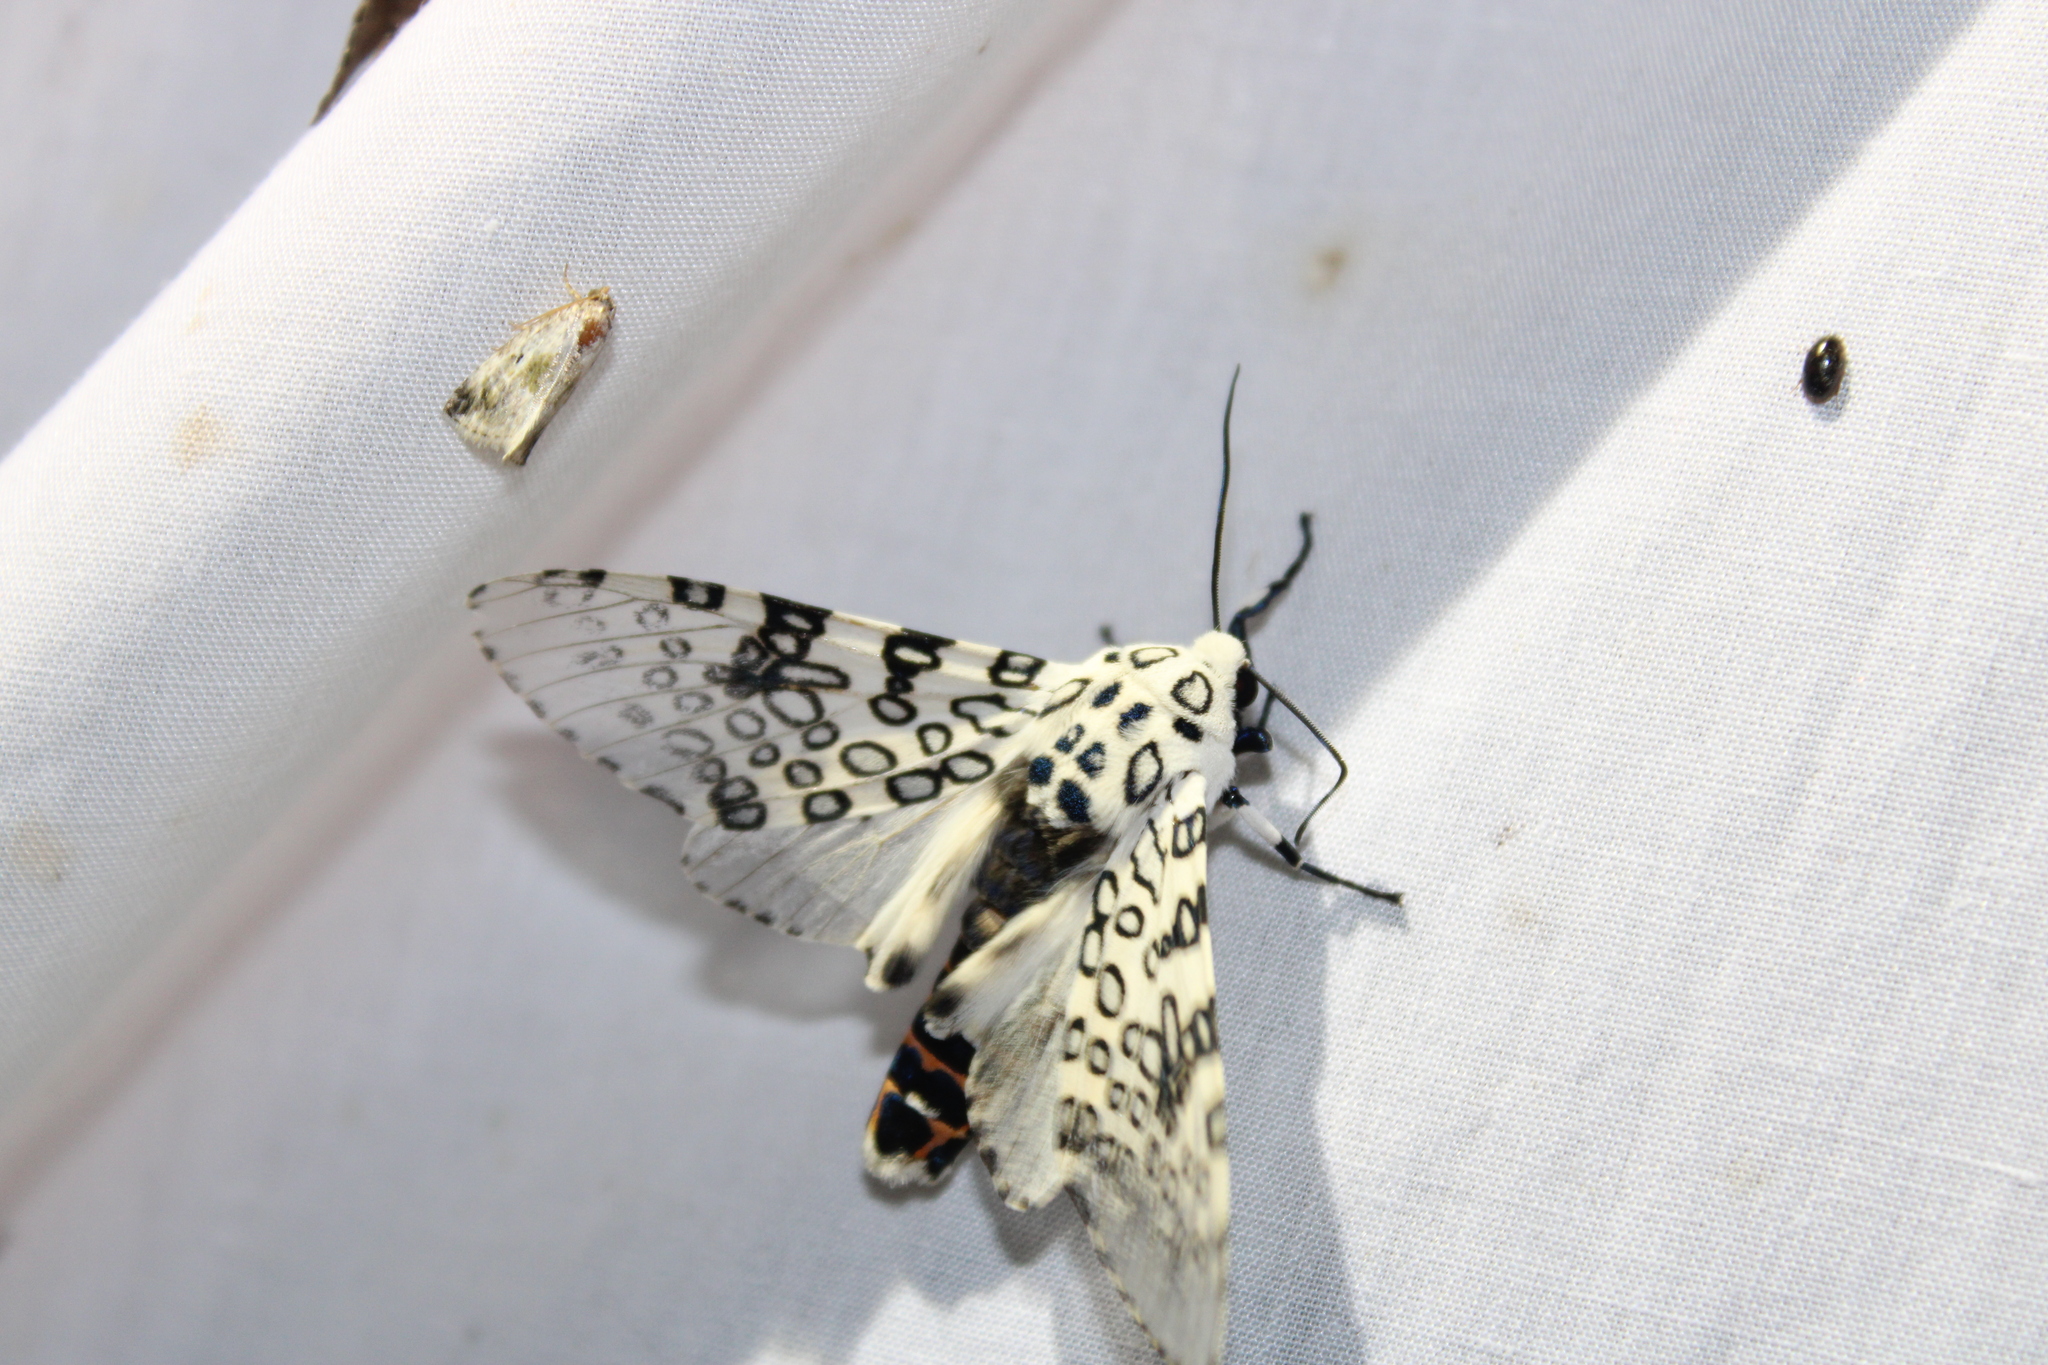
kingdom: Animalia
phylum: Arthropoda
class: Insecta
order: Lepidoptera
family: Erebidae
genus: Hypercompe
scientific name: Hypercompe scribonia
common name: Giant leopard moth
